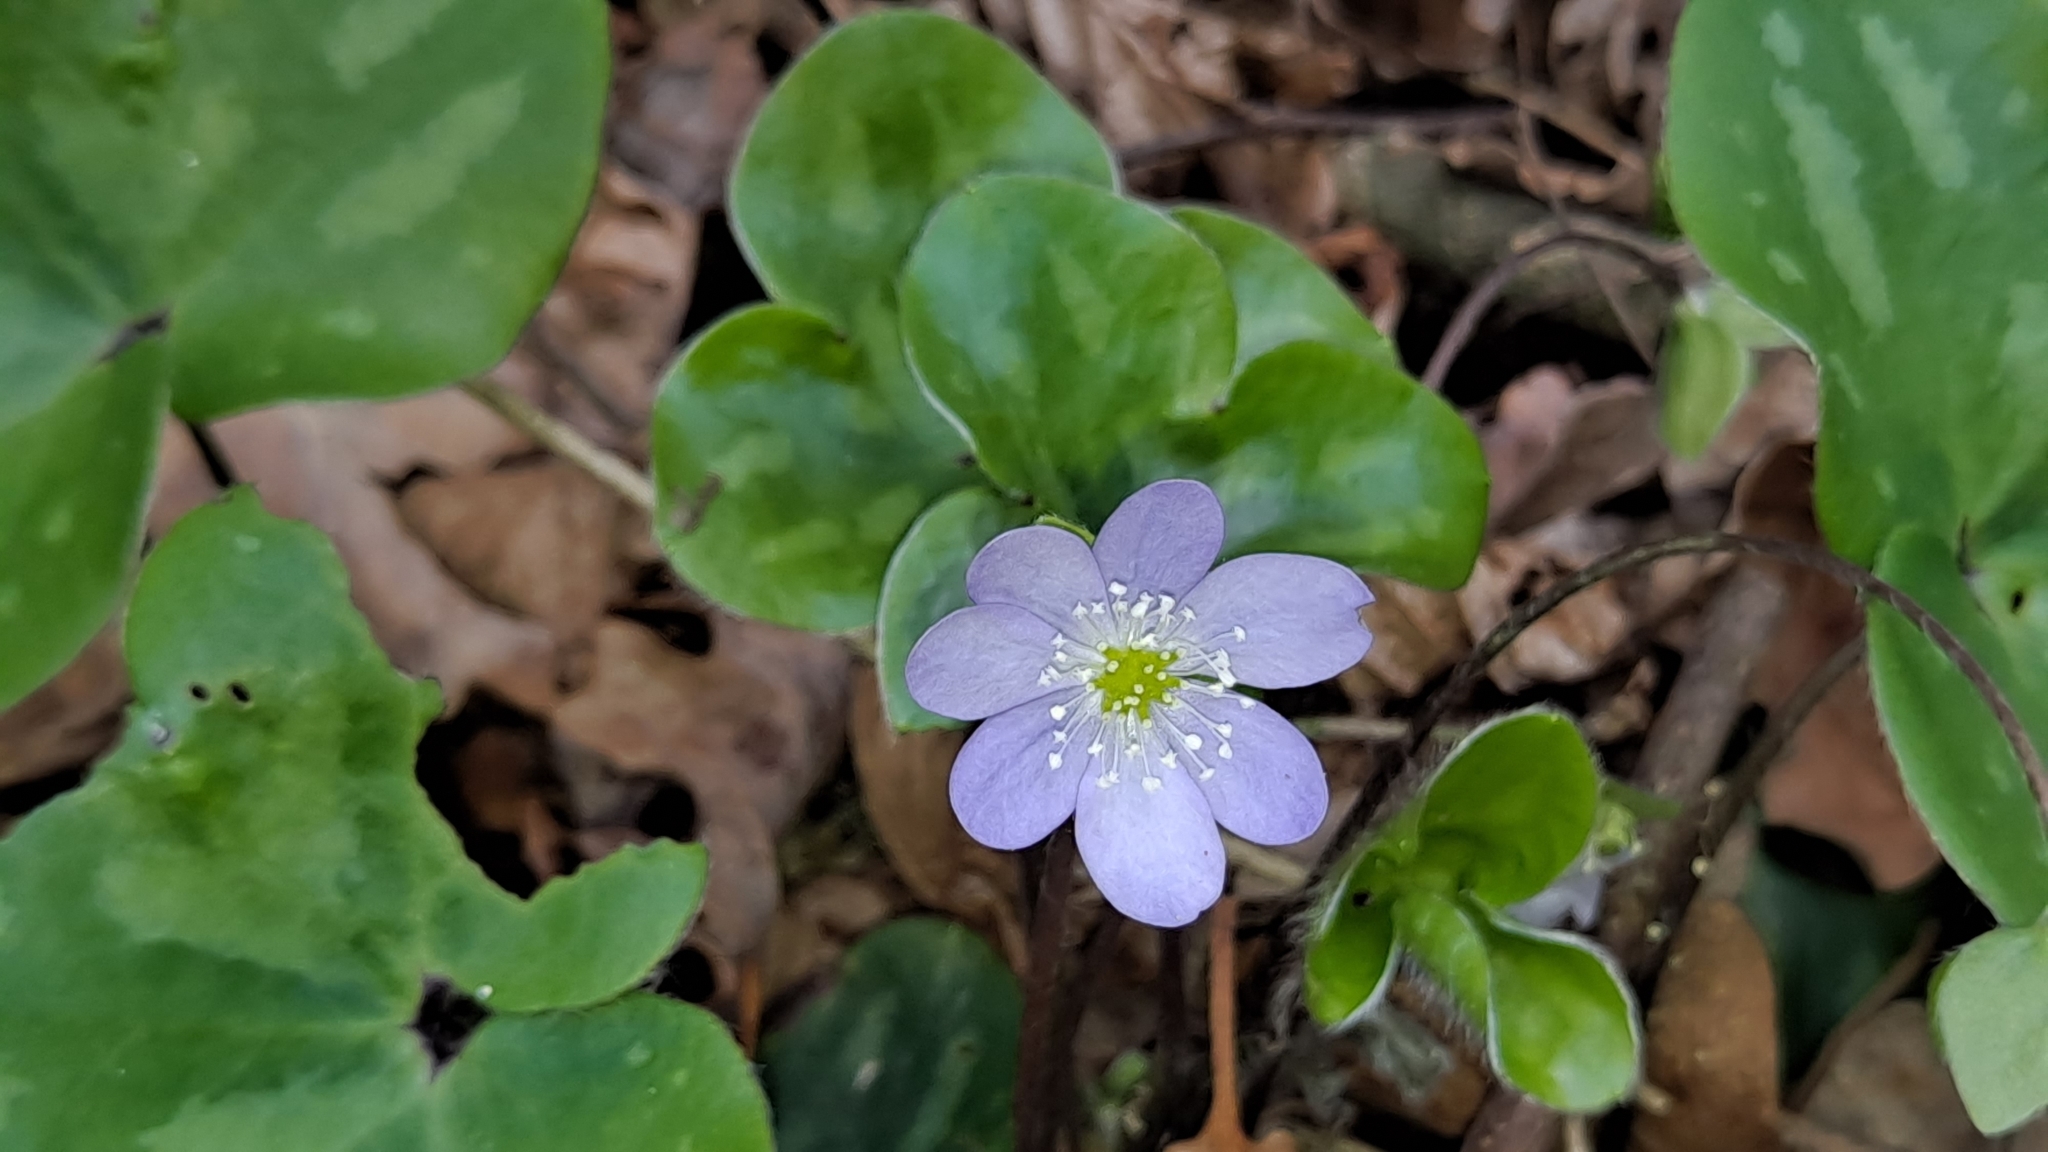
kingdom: Plantae
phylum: Tracheophyta
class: Magnoliopsida
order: Ranunculales
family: Ranunculaceae
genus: Hepatica
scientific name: Hepatica nobilis
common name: Liverleaf
